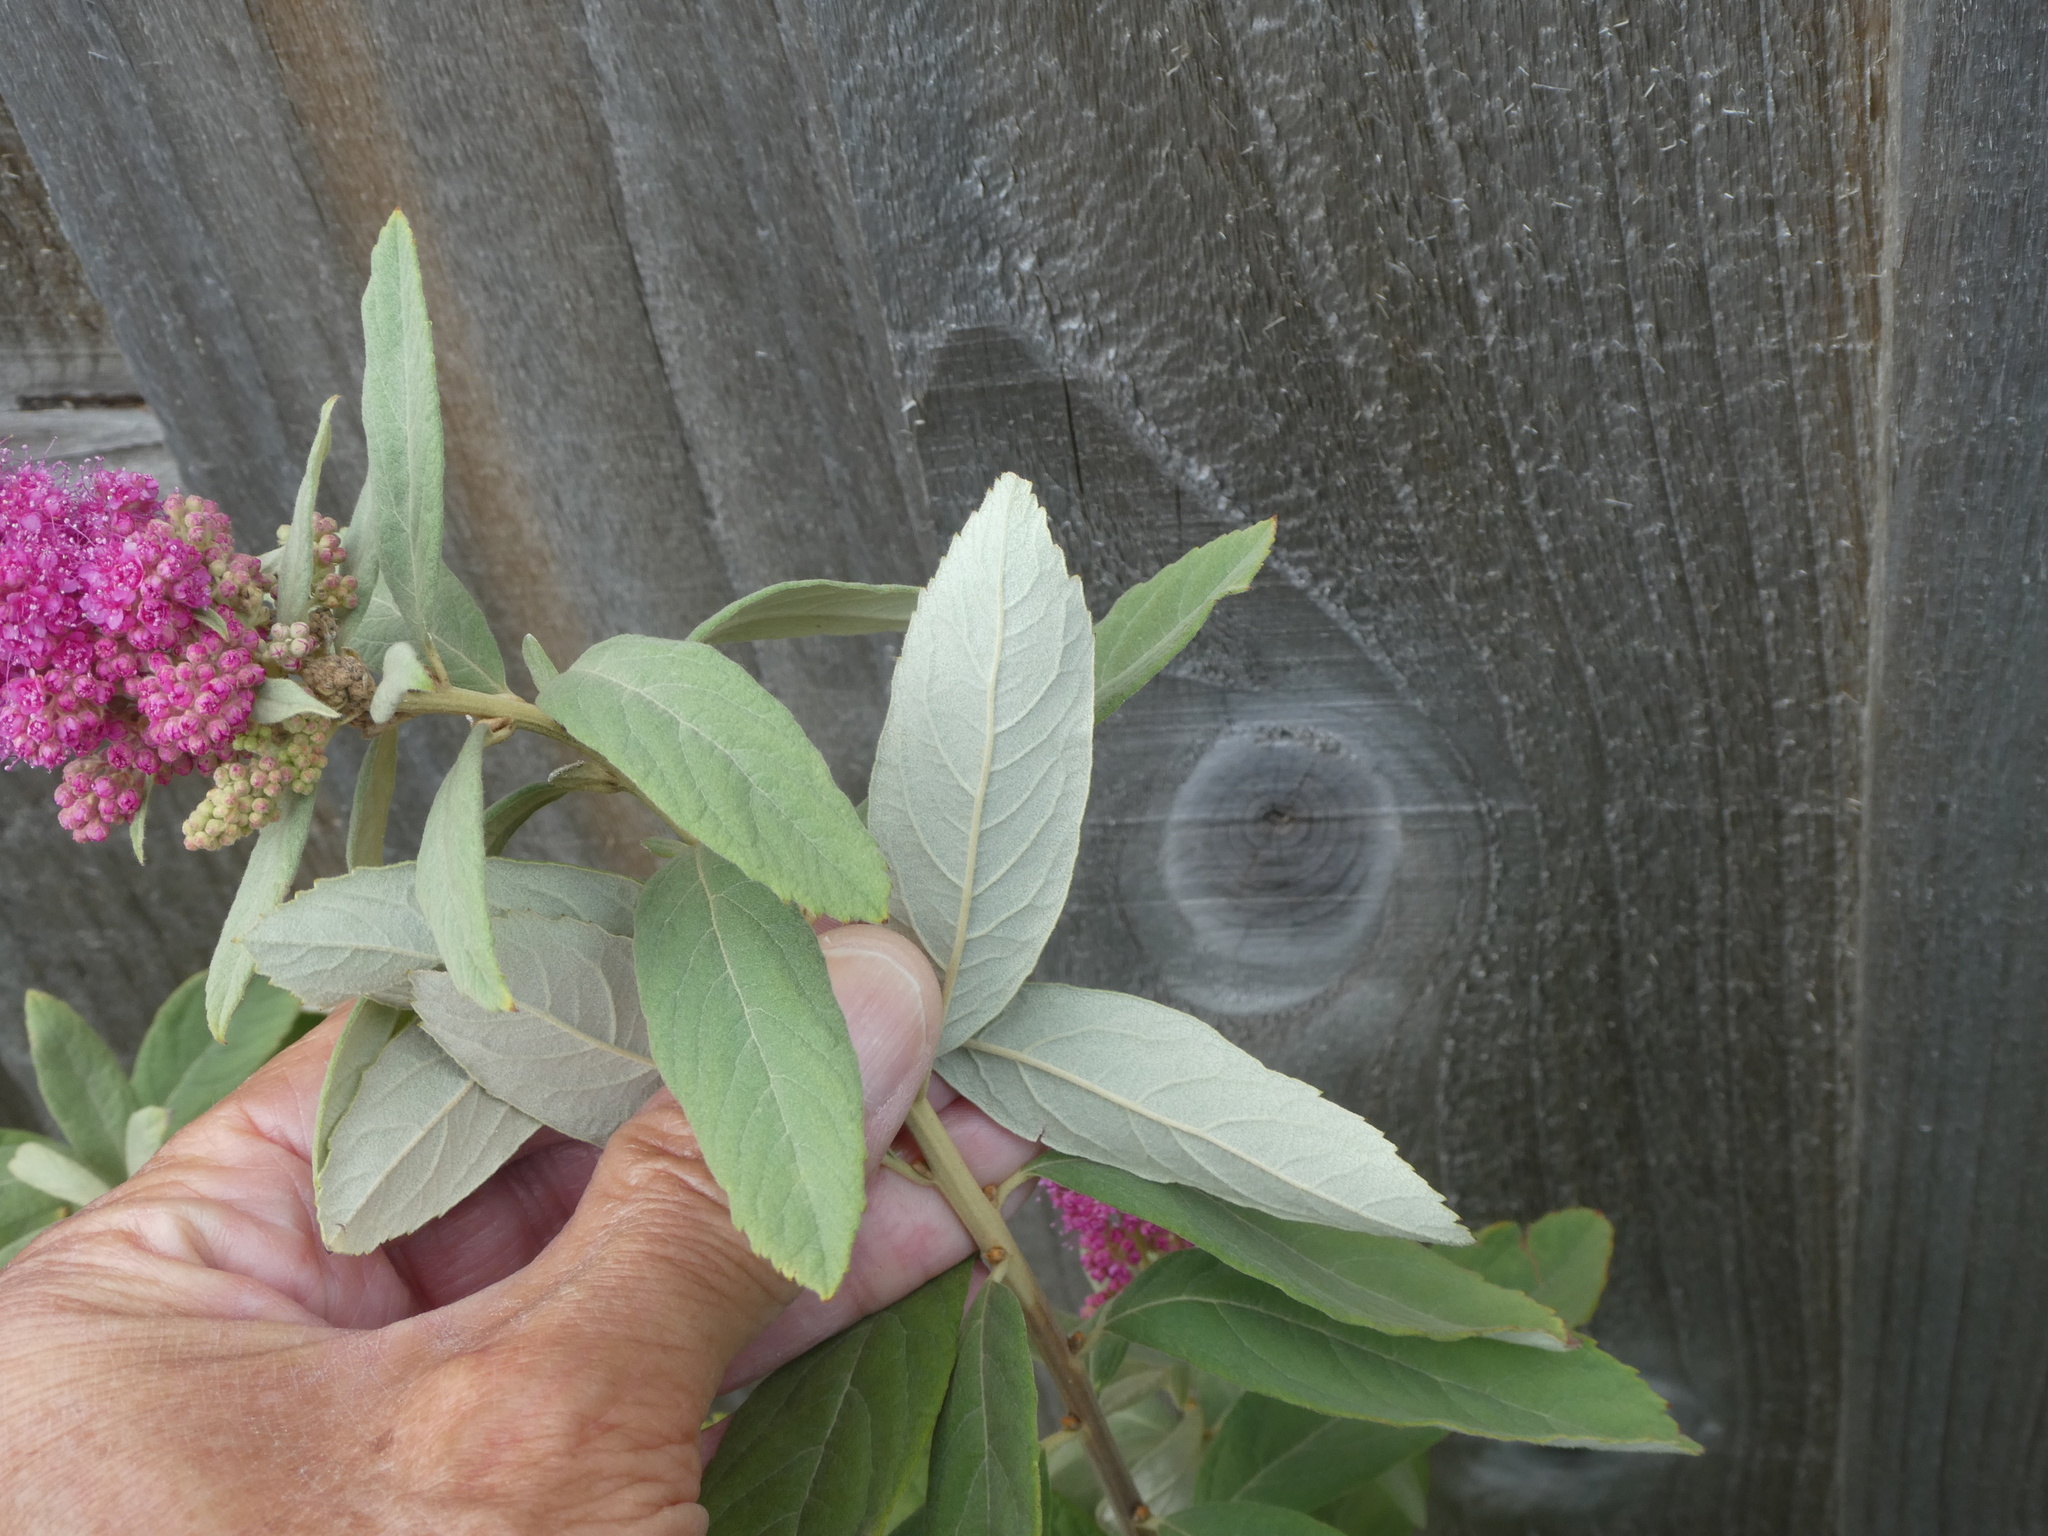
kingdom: Plantae
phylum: Tracheophyta
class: Magnoliopsida
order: Rosales
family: Rosaceae
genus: Spiraea
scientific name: Spiraea douglasii
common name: Steeplebush
